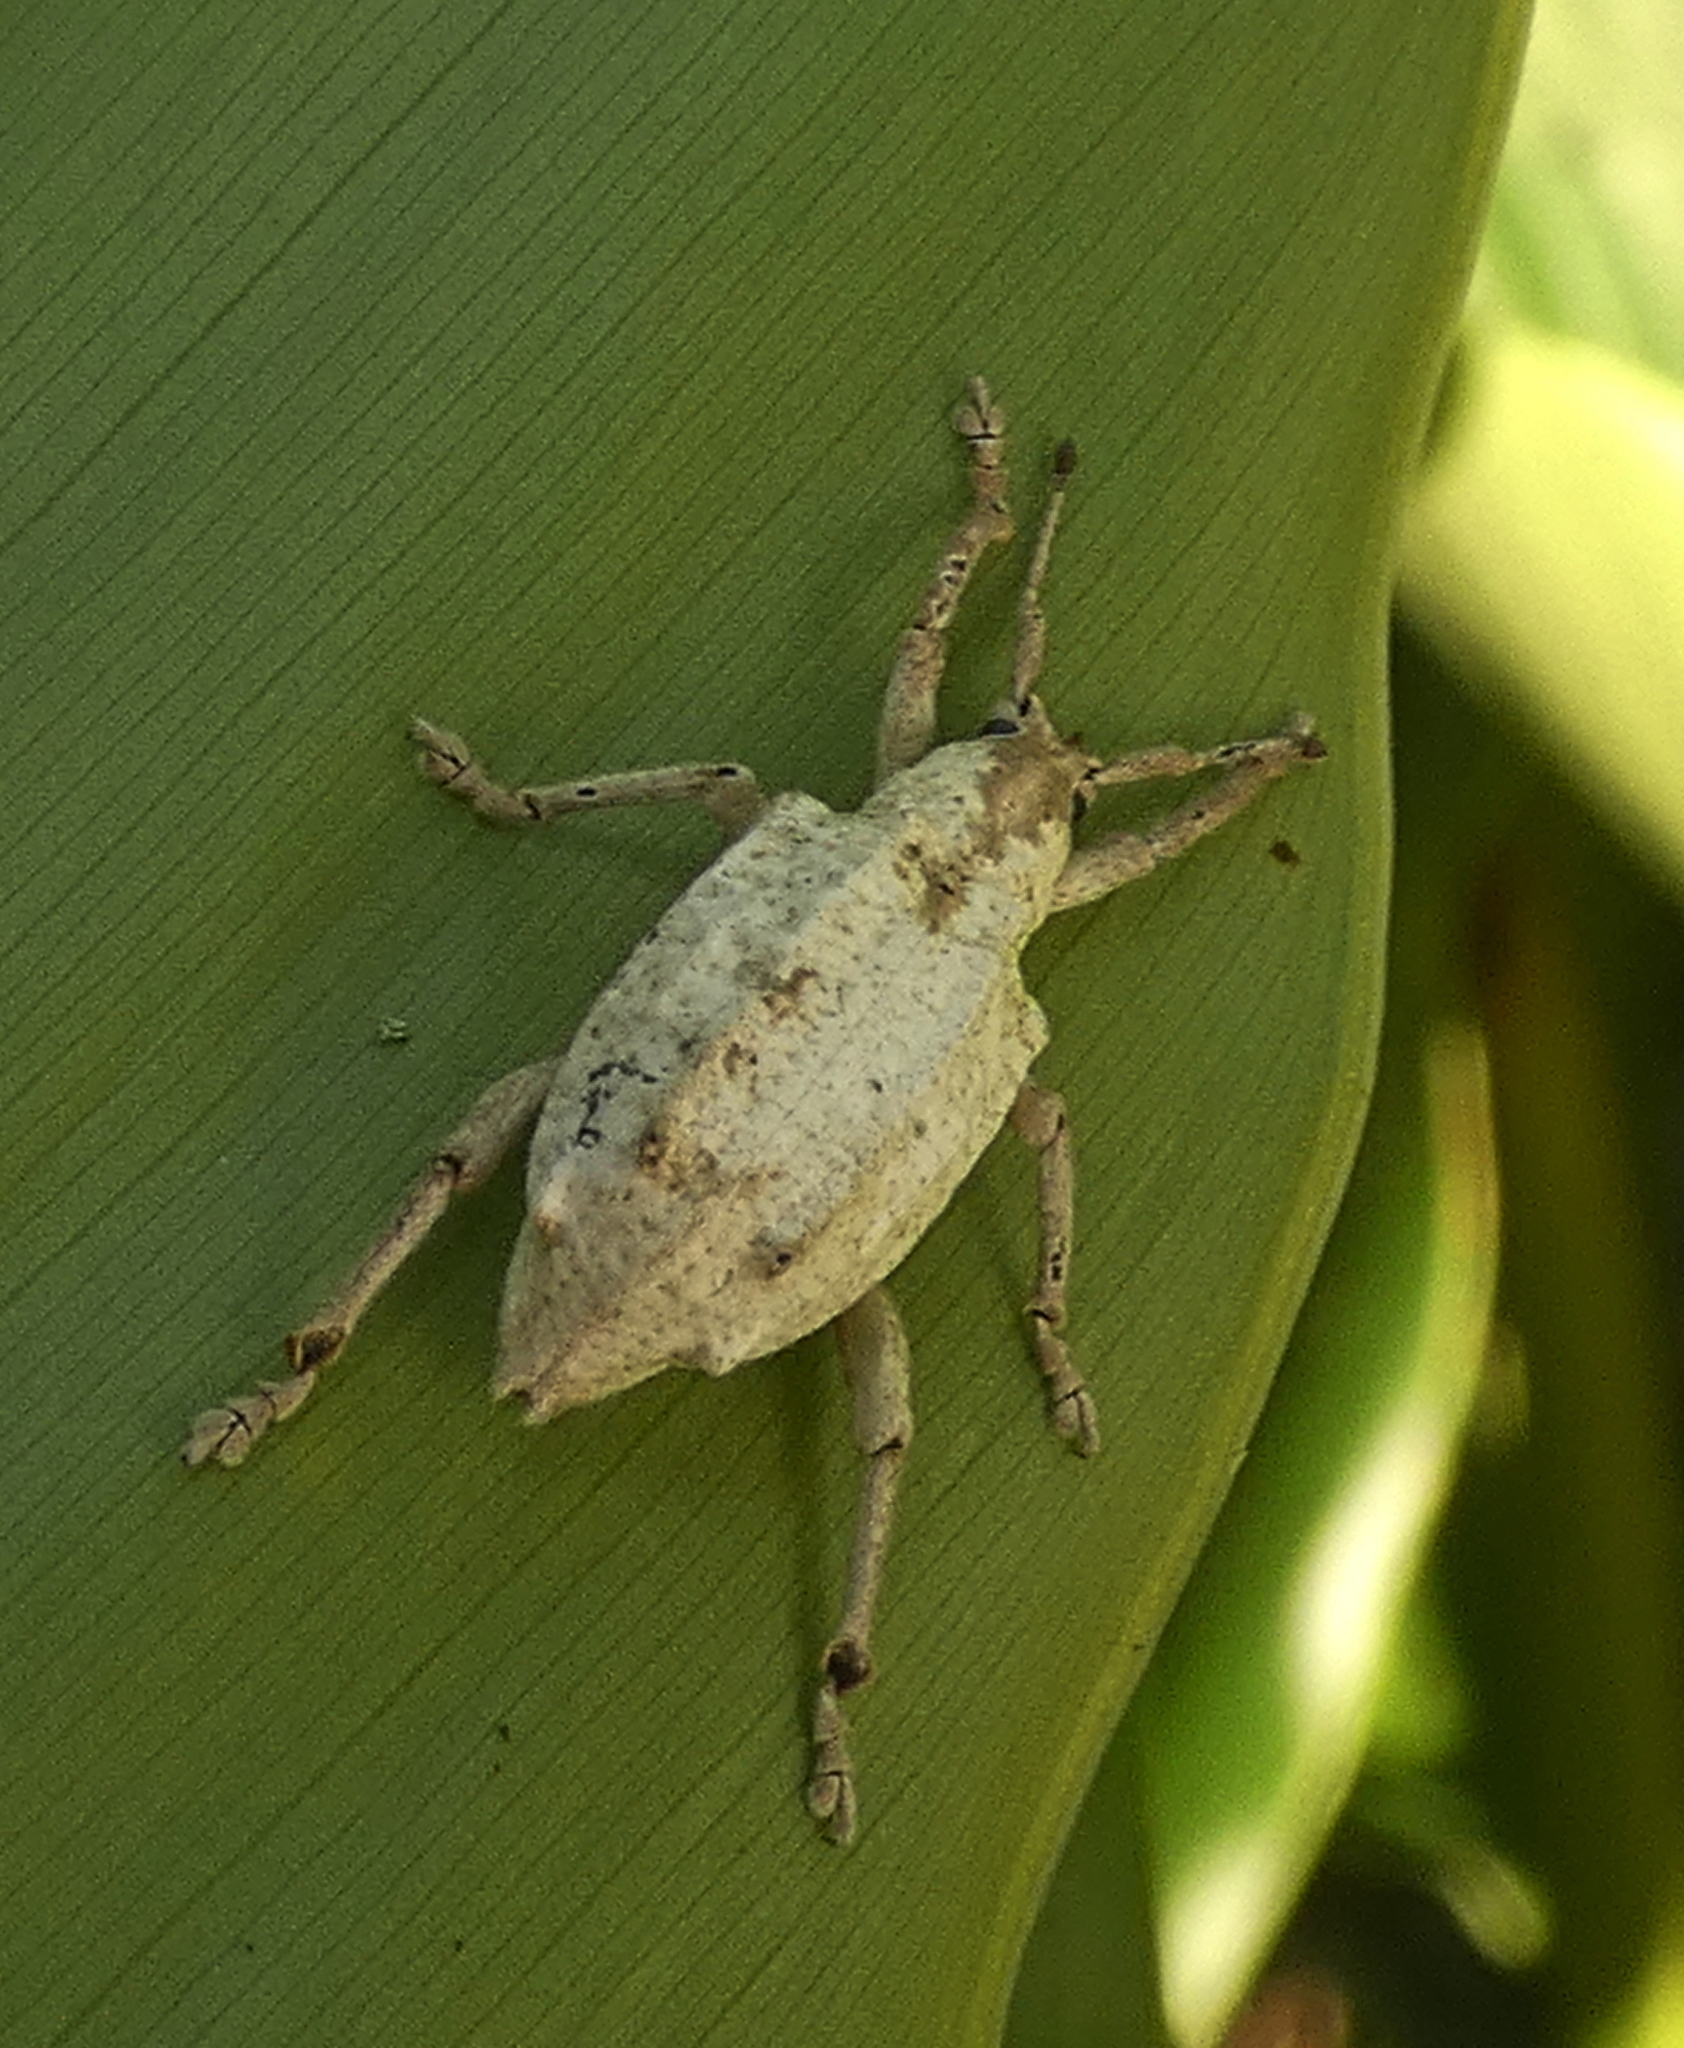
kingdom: Animalia
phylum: Arthropoda
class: Insecta
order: Coleoptera
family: Curculionidae
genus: Compsus
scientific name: Compsus niveus
